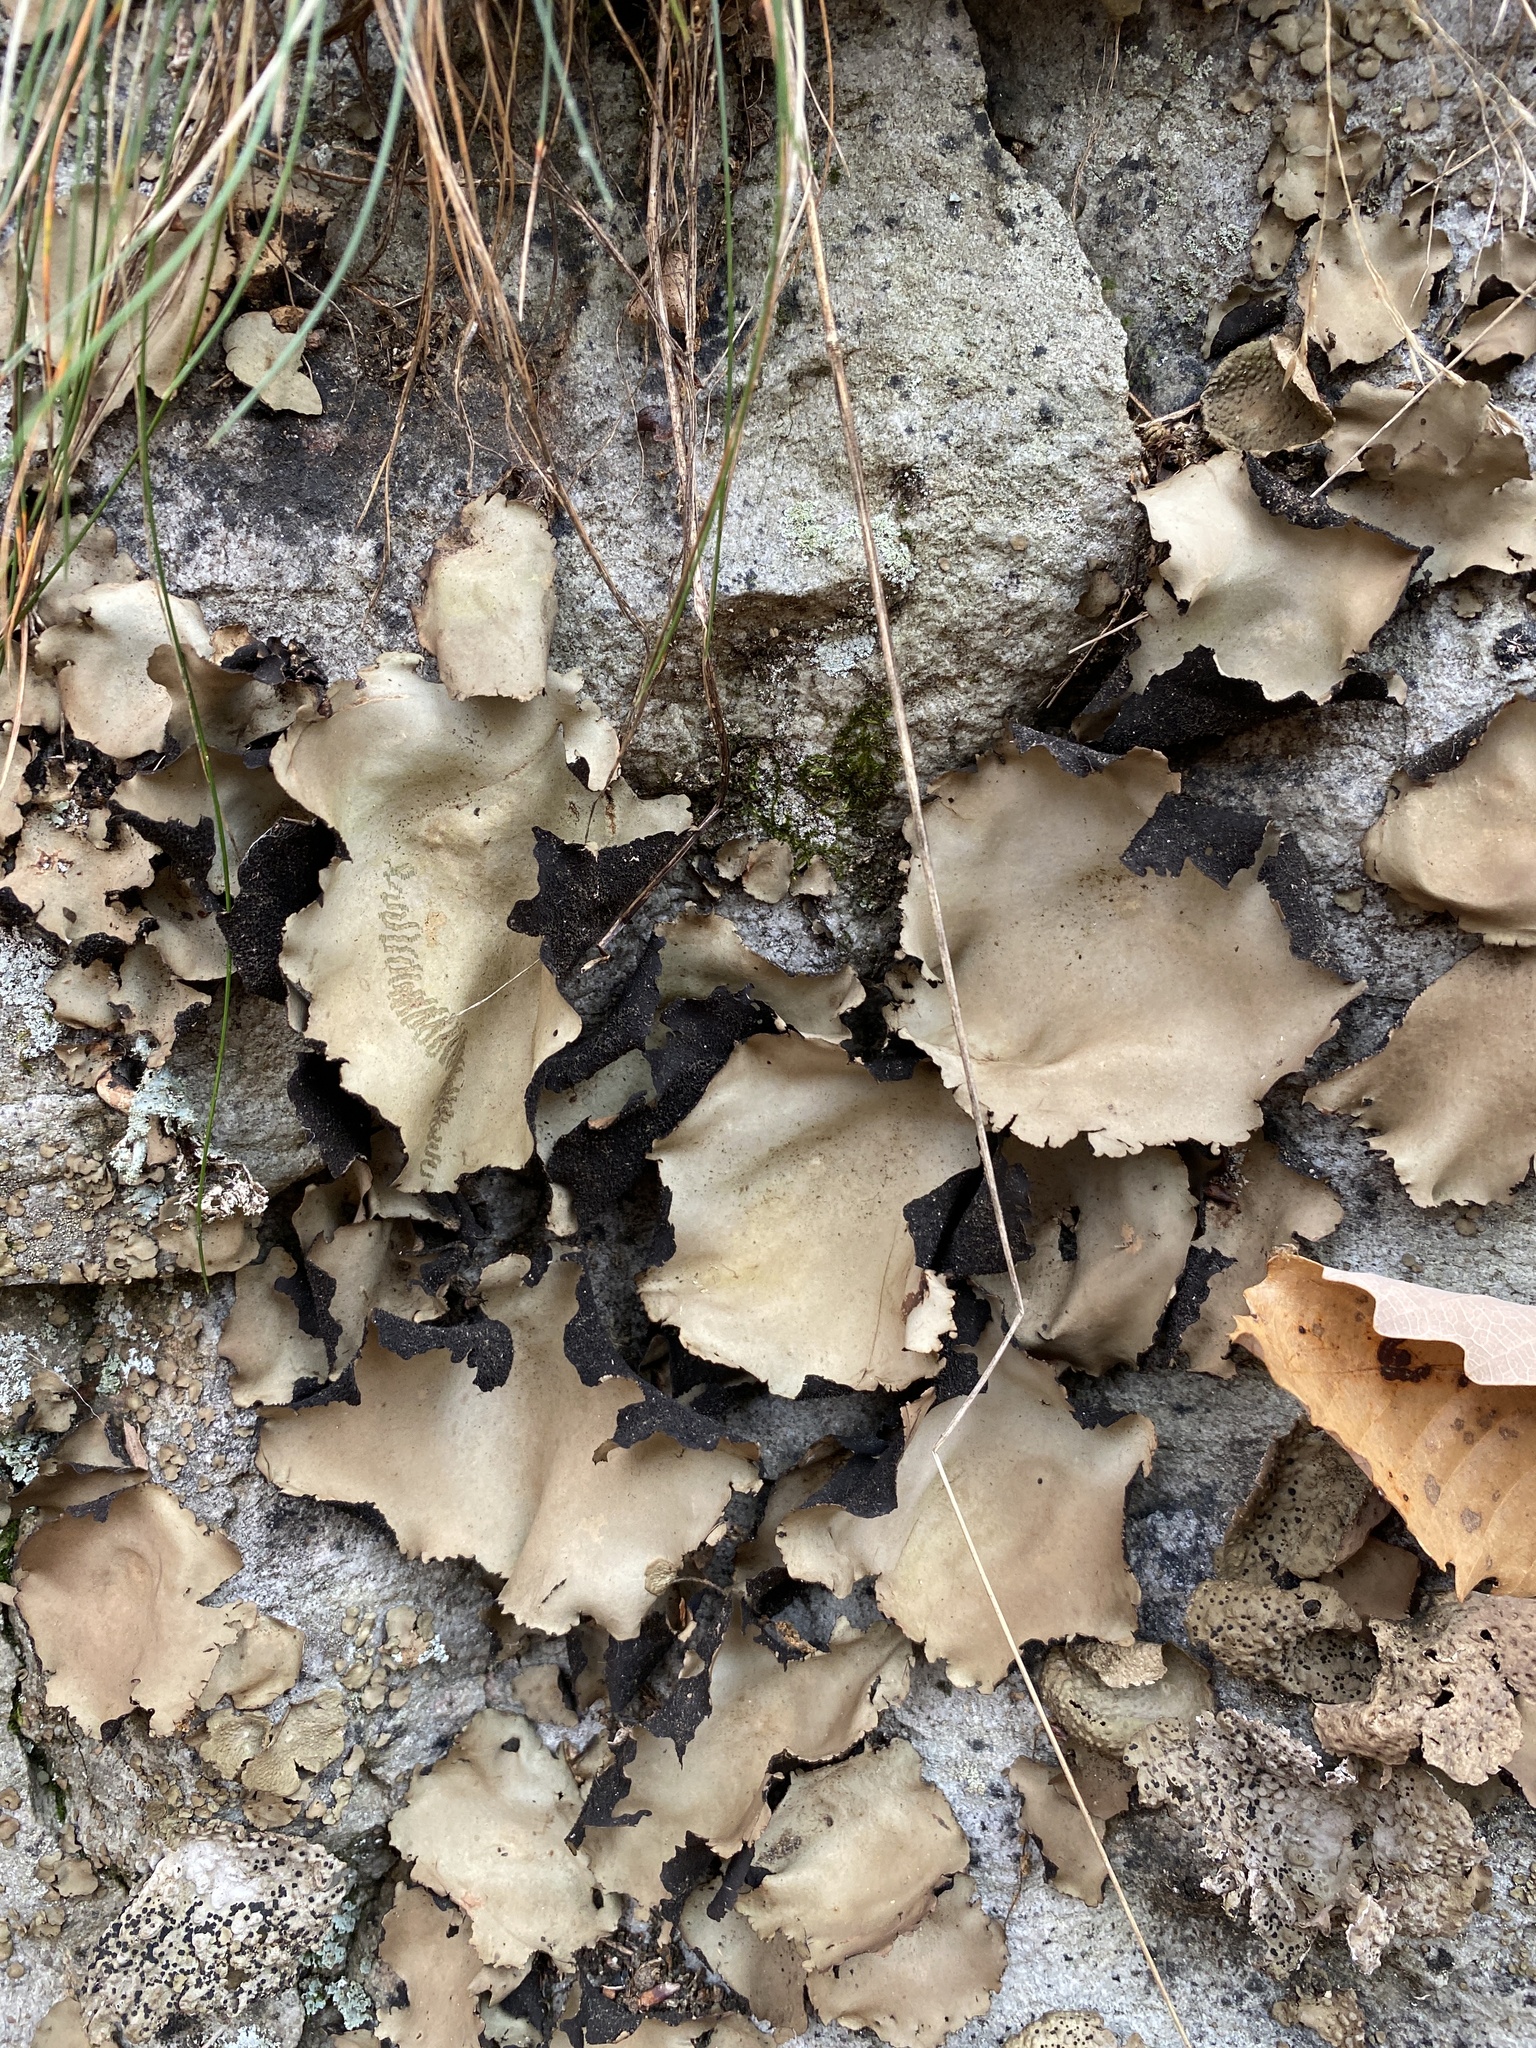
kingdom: Fungi
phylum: Ascomycota
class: Lecanoromycetes
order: Umbilicariales
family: Umbilicariaceae
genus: Umbilicaria
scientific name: Umbilicaria mammulata
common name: Smooth rock tripe
